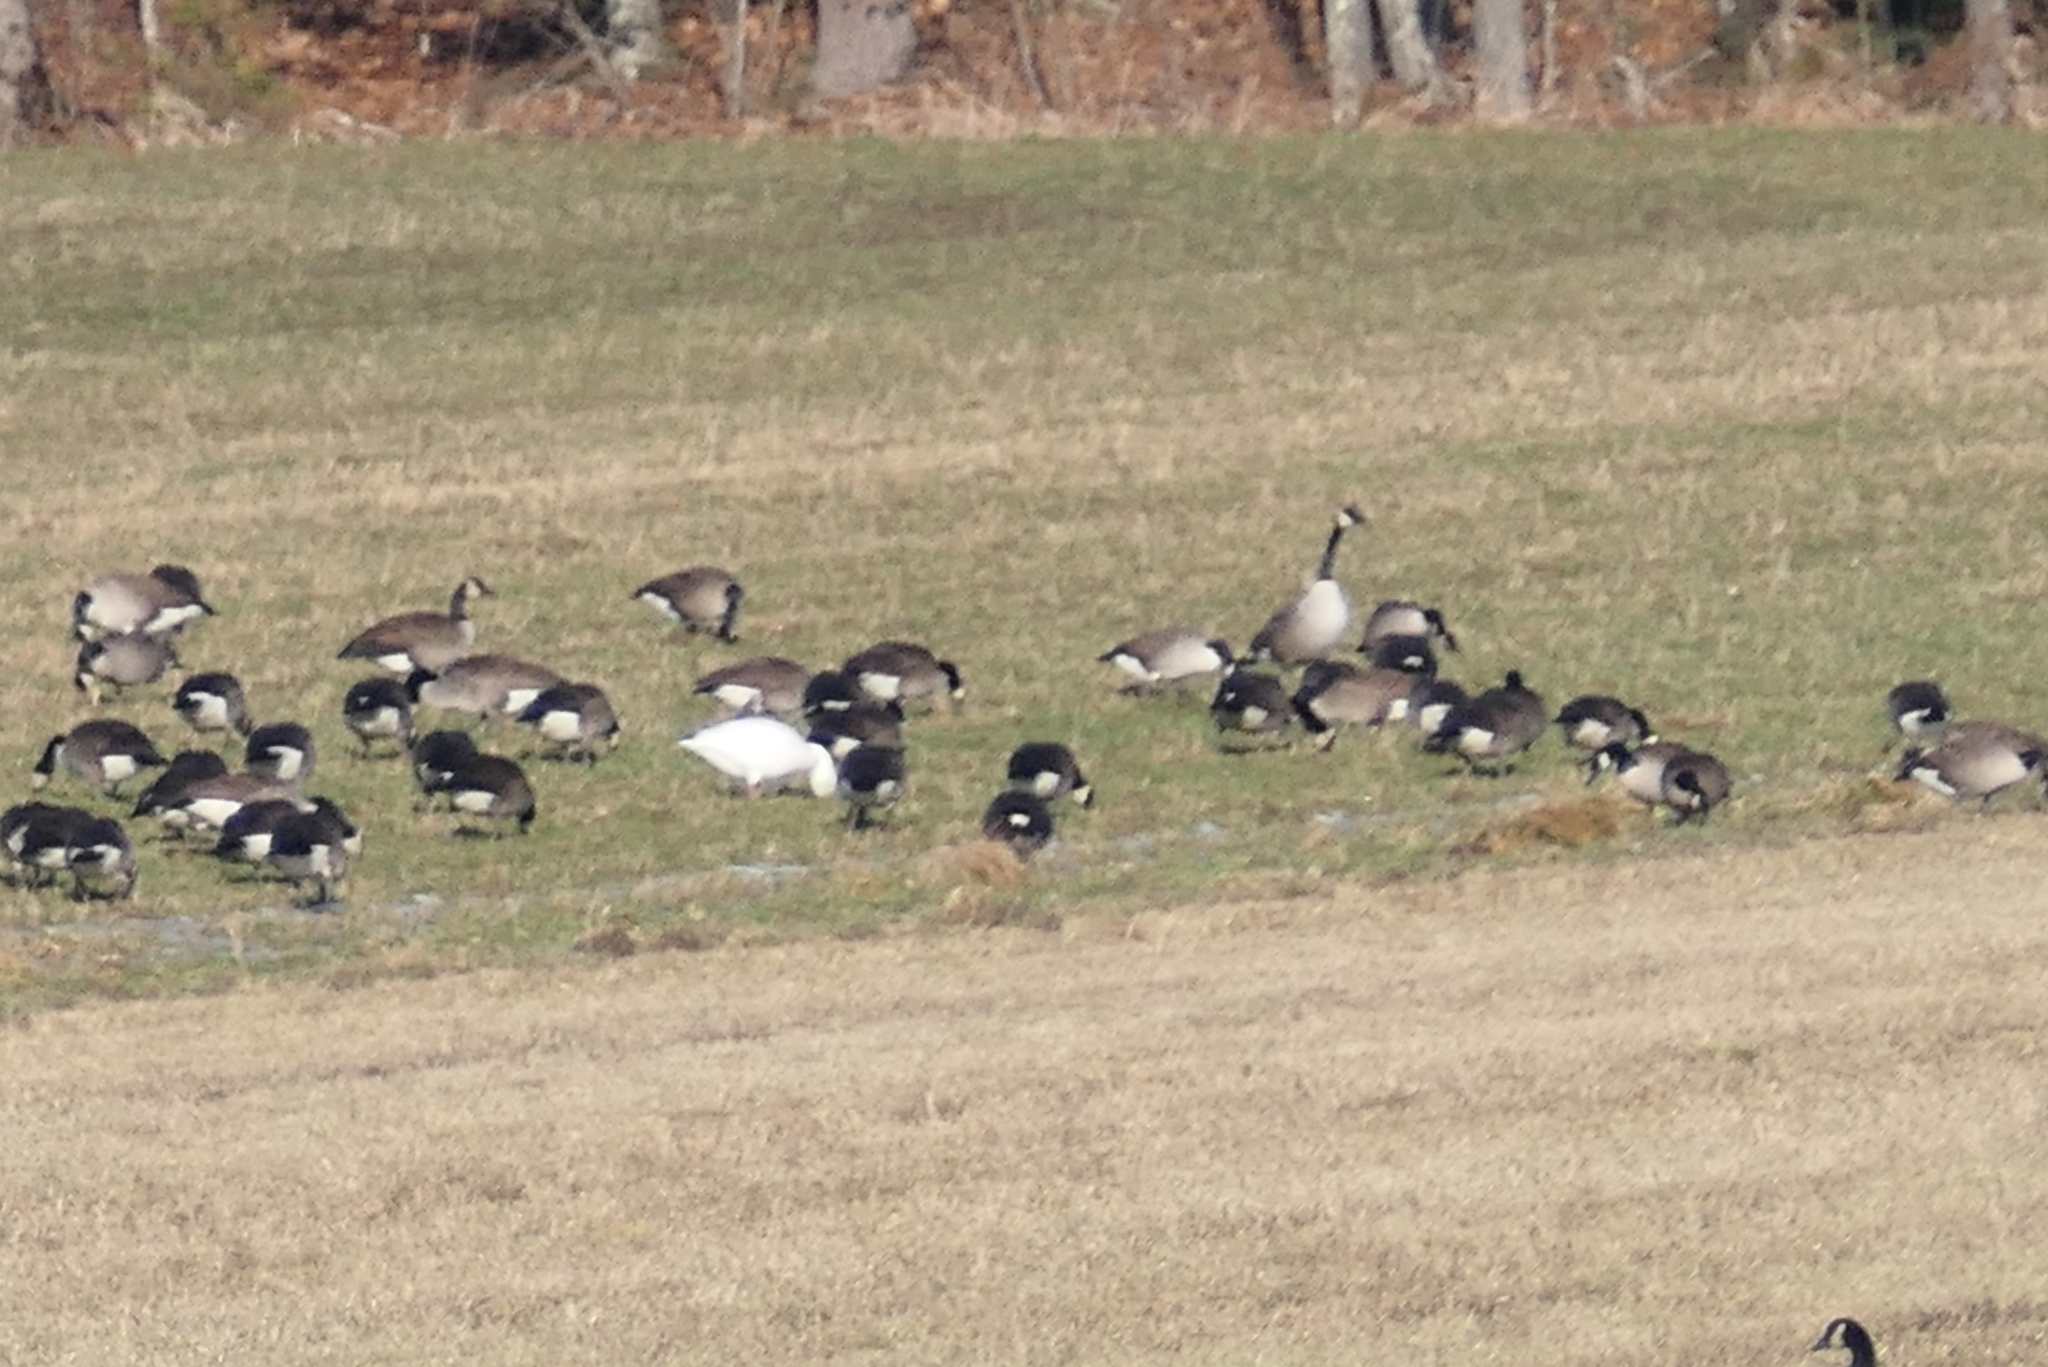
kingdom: Animalia
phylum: Chordata
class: Aves
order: Anseriformes
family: Anatidae
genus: Anser
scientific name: Anser caerulescens
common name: Snow goose
